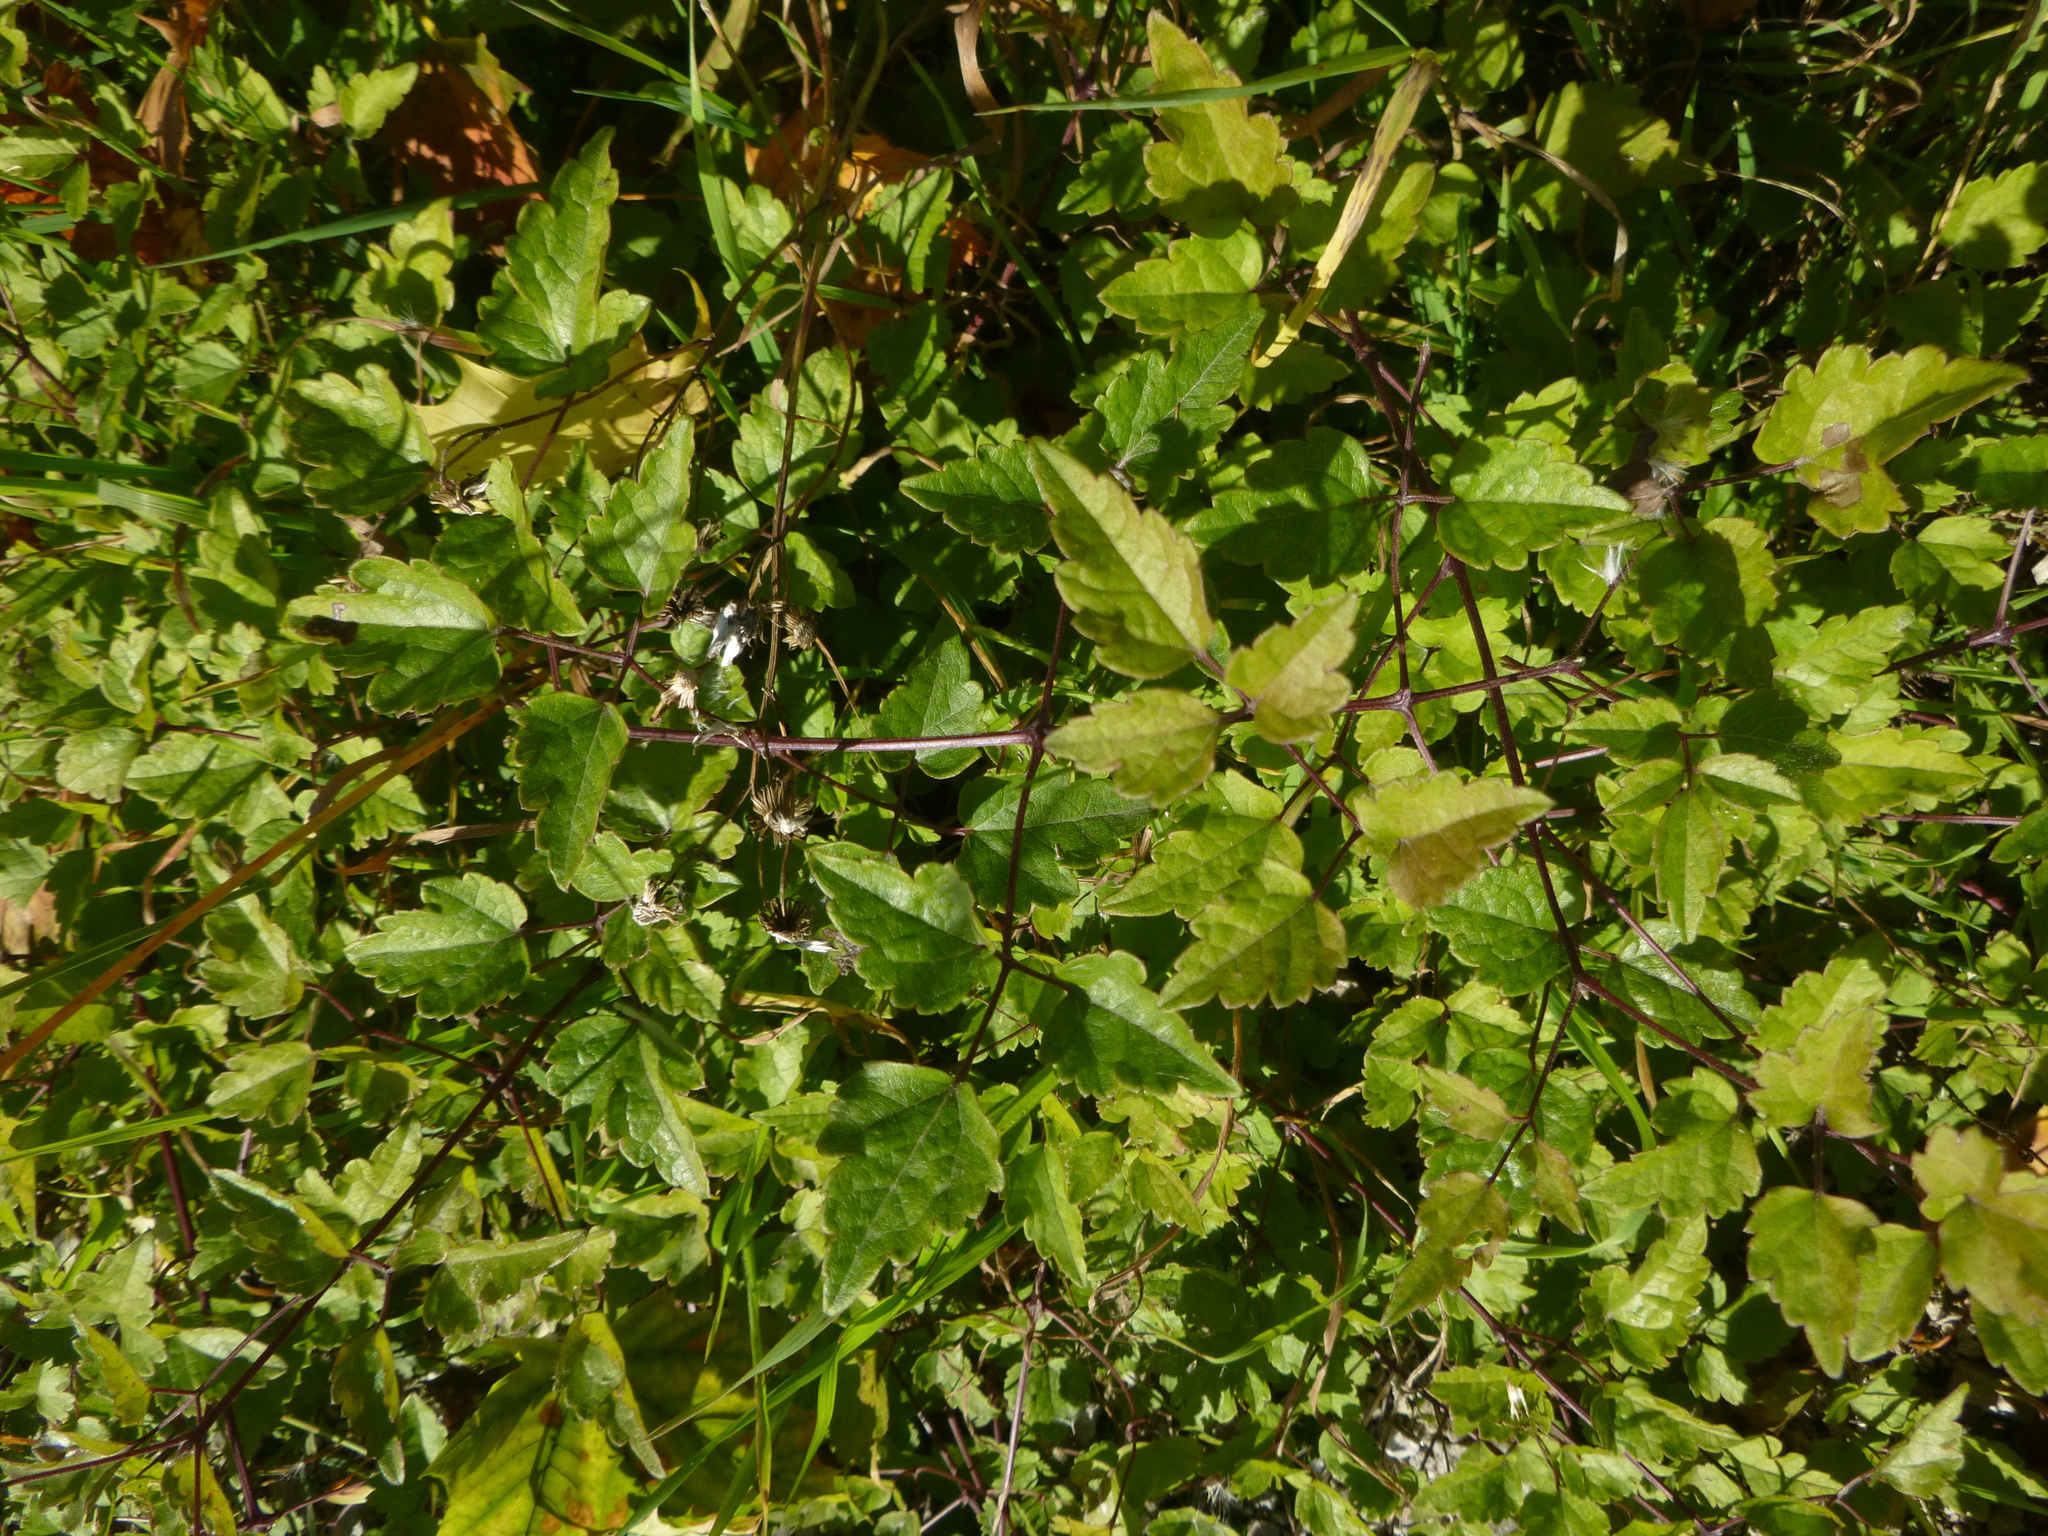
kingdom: Plantae
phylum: Tracheophyta
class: Magnoliopsida
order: Ranunculales
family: Ranunculaceae
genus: Clematis
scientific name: Clematis vitalba
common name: Evergreen clematis
